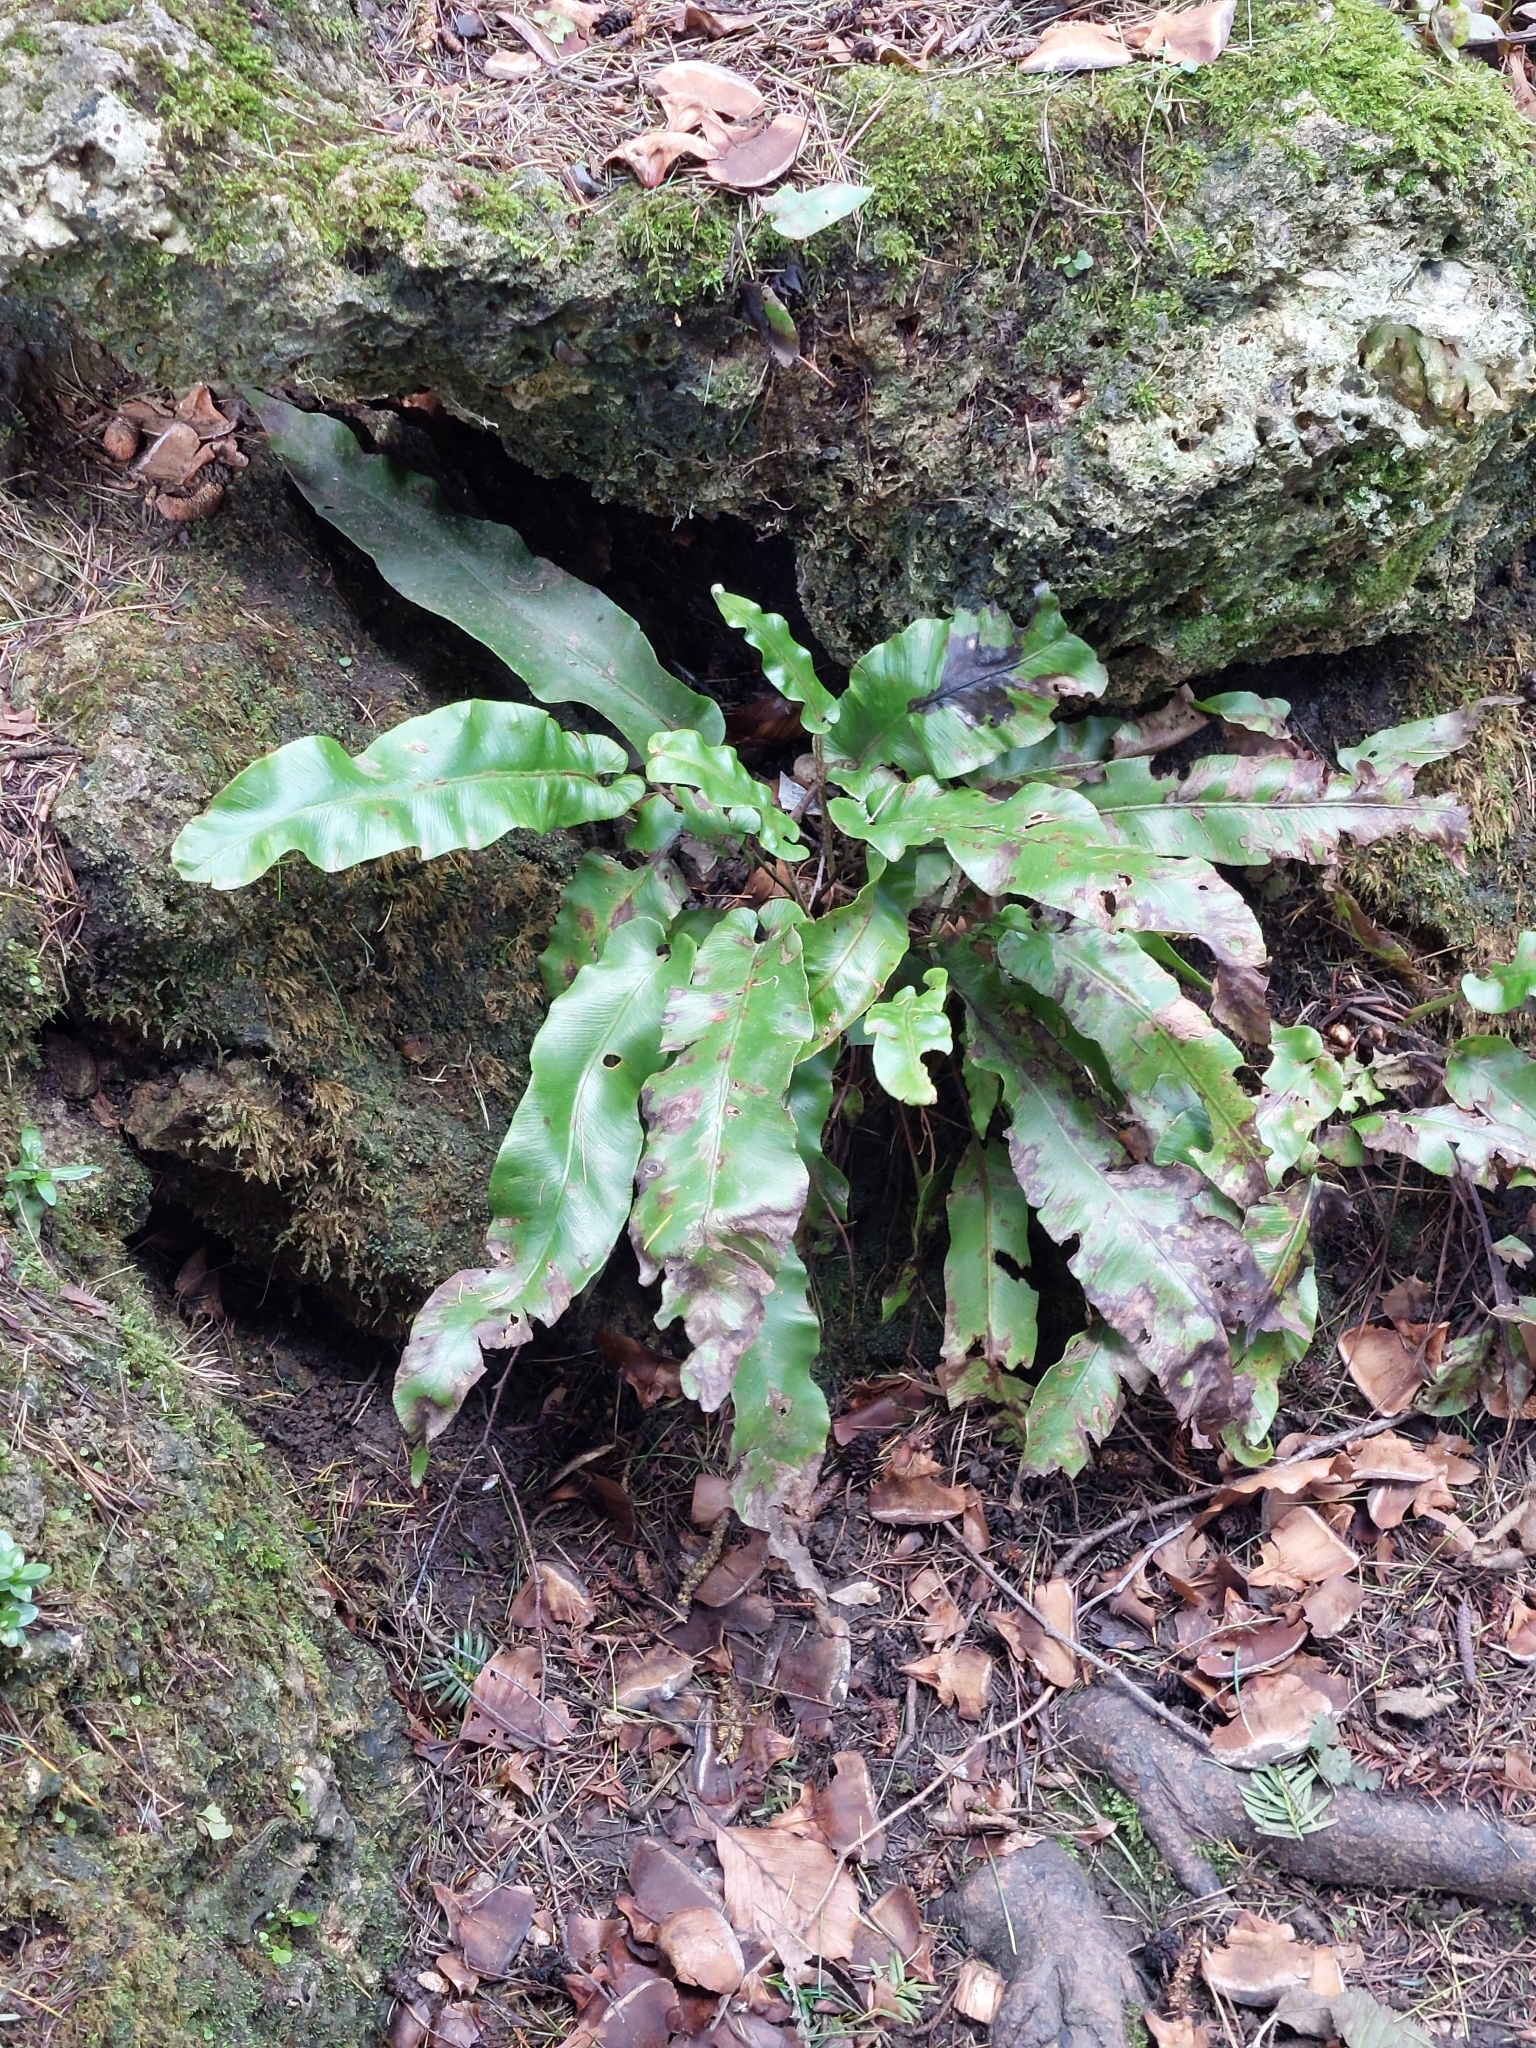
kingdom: Plantae
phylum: Tracheophyta
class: Polypodiopsida
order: Polypodiales
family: Aspleniaceae
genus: Asplenium
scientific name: Asplenium scolopendrium
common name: Hart's-tongue fern
